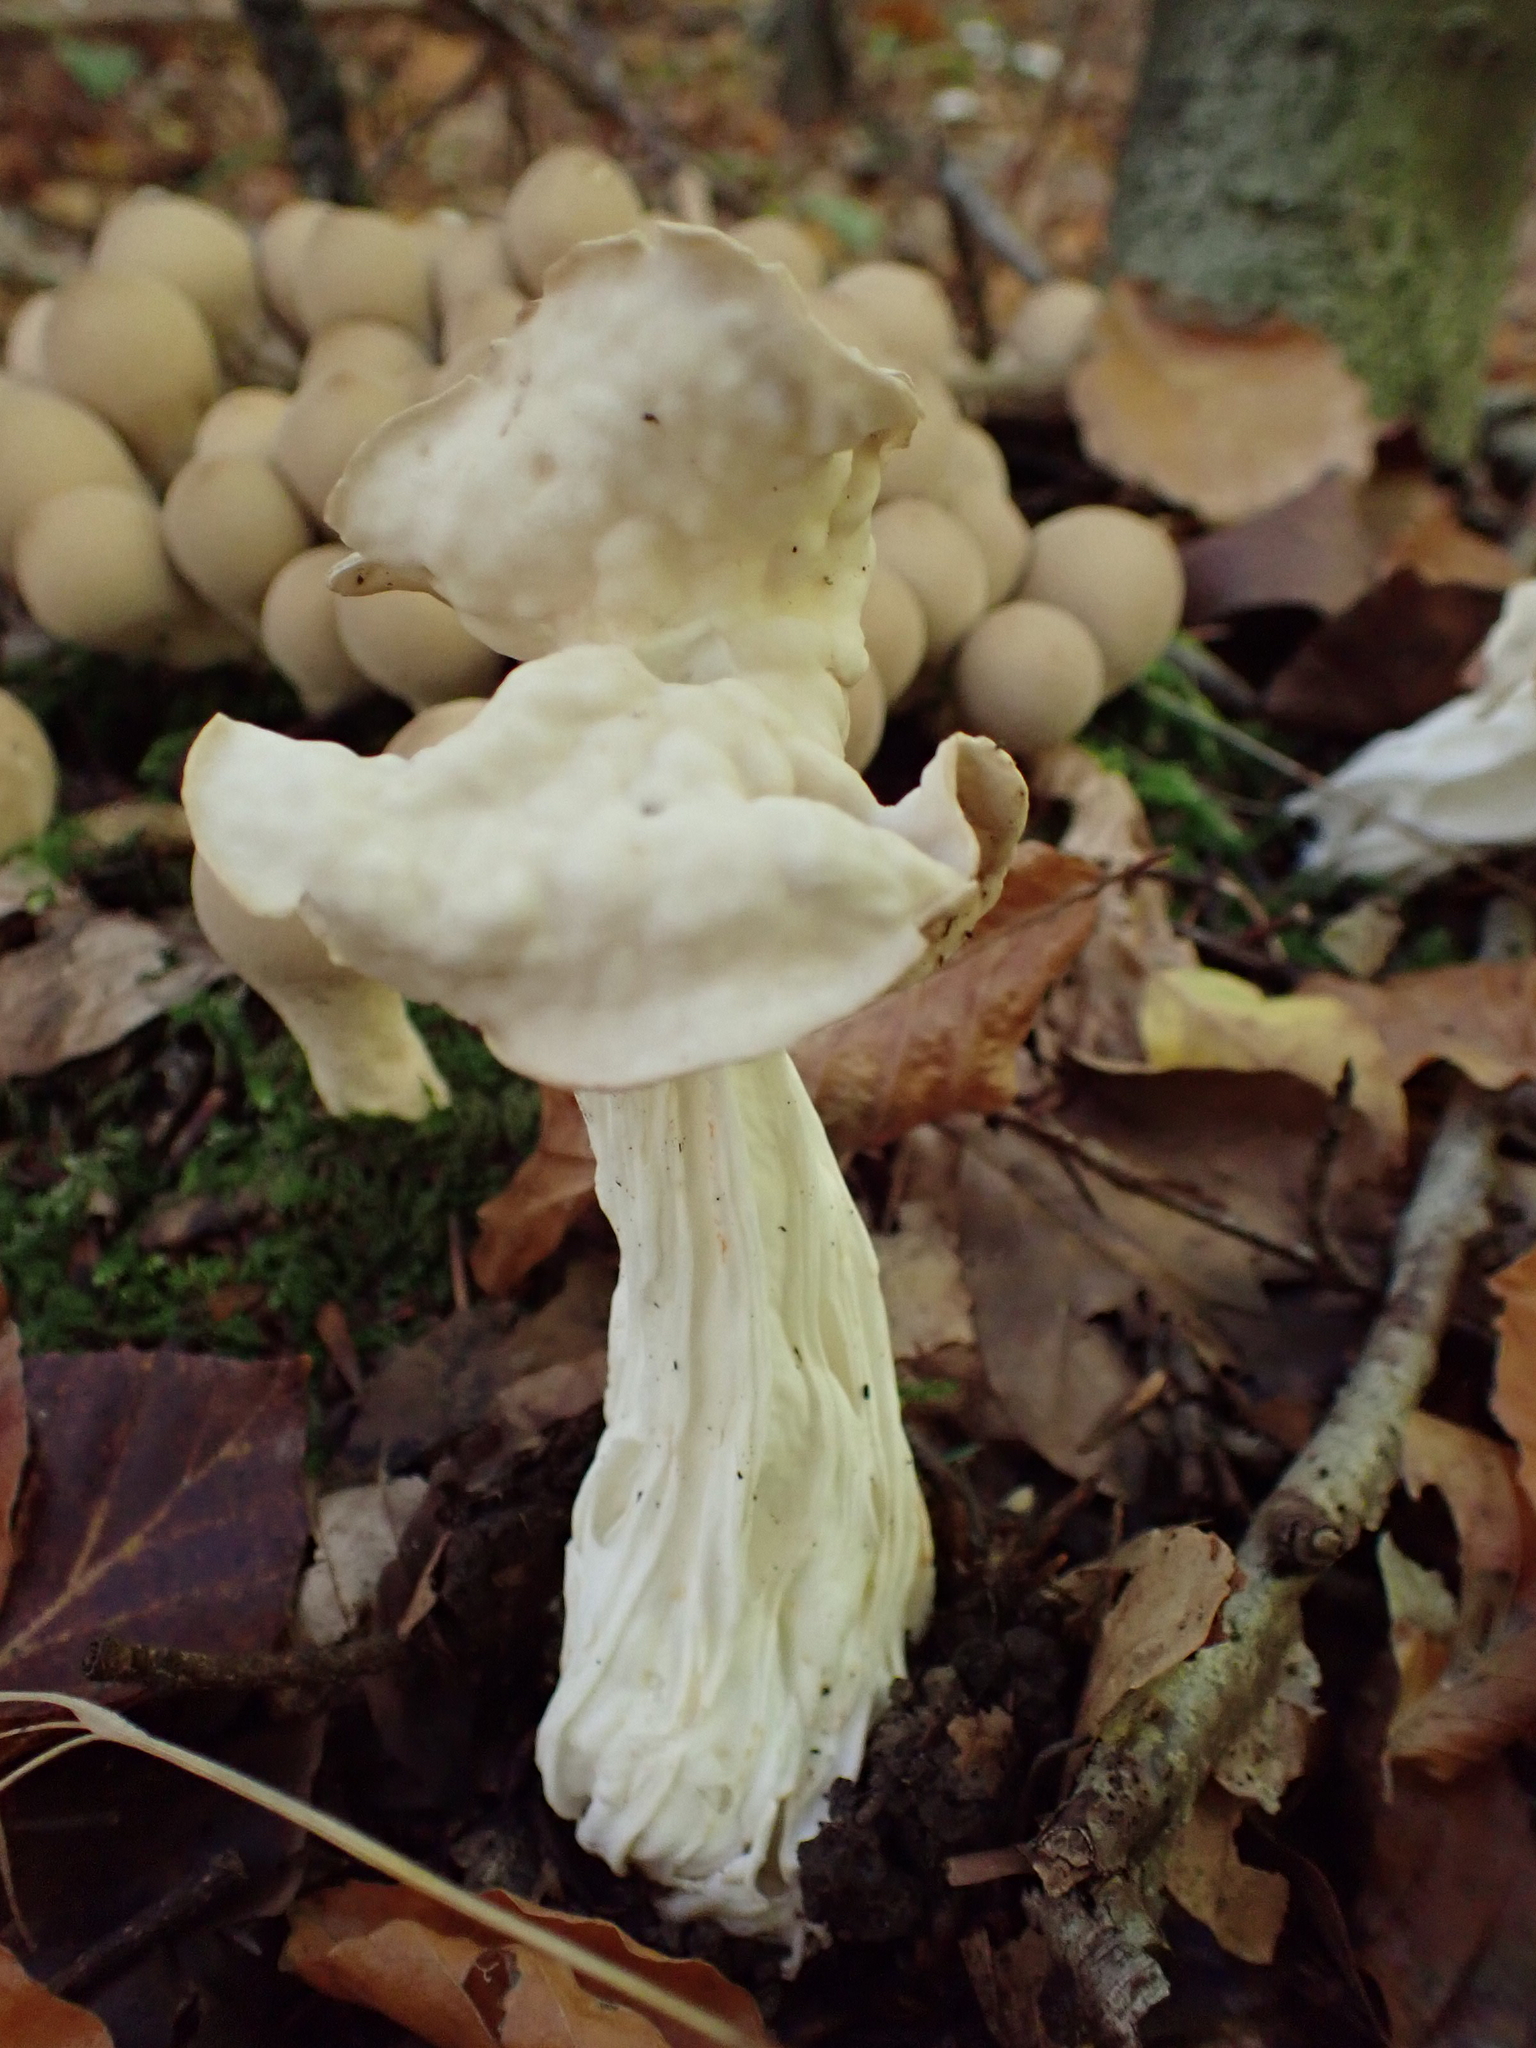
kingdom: Fungi
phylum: Ascomycota
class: Pezizomycetes
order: Pezizales
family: Helvellaceae
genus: Helvella
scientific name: Helvella crispa
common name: White saddle
